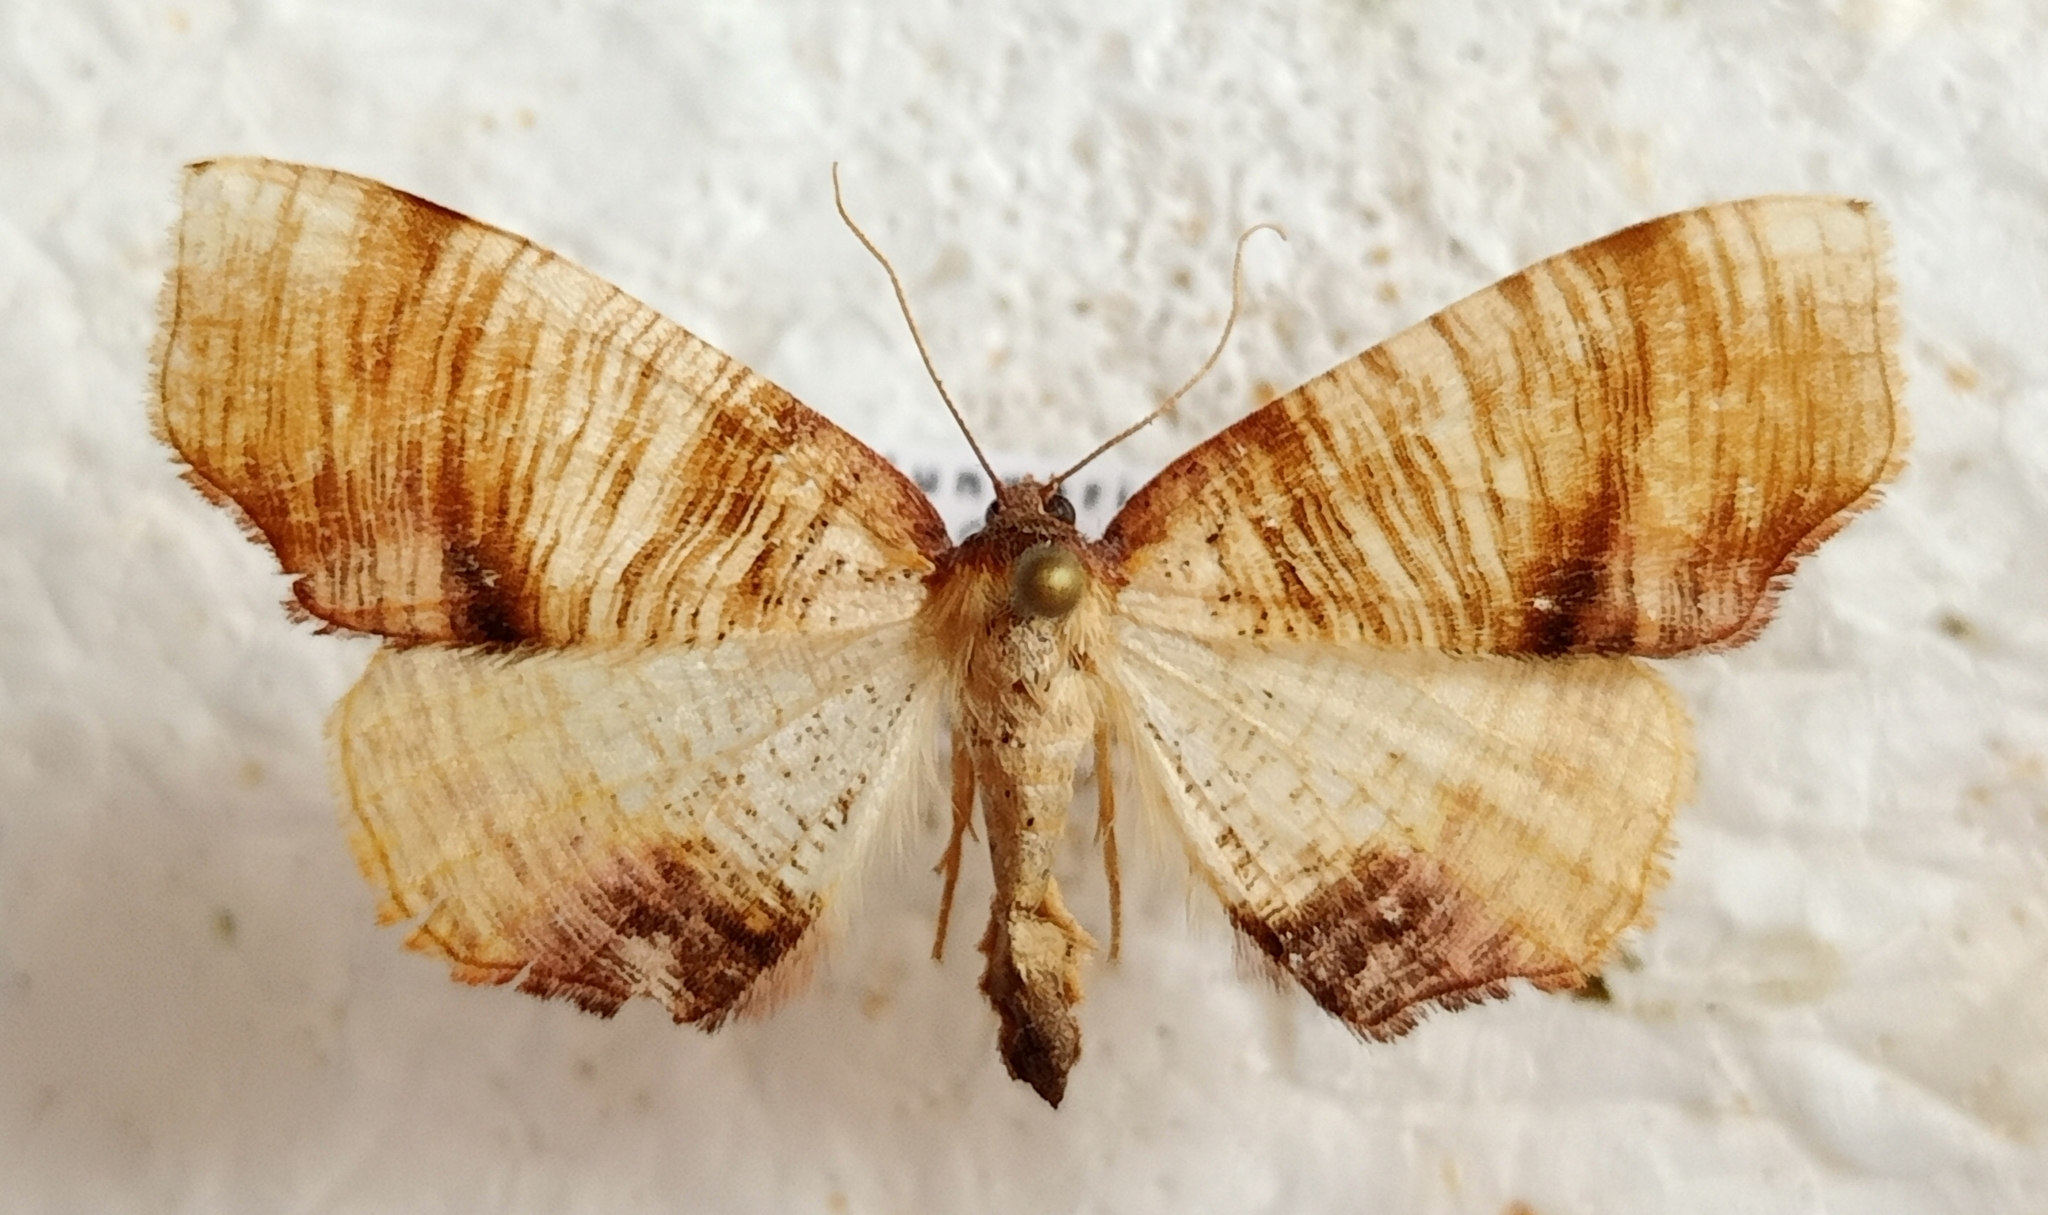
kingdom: Animalia
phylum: Arthropoda
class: Insecta
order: Lepidoptera
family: Geometridae
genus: Plagodis
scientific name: Plagodis dolabraria
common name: Scorched wing
